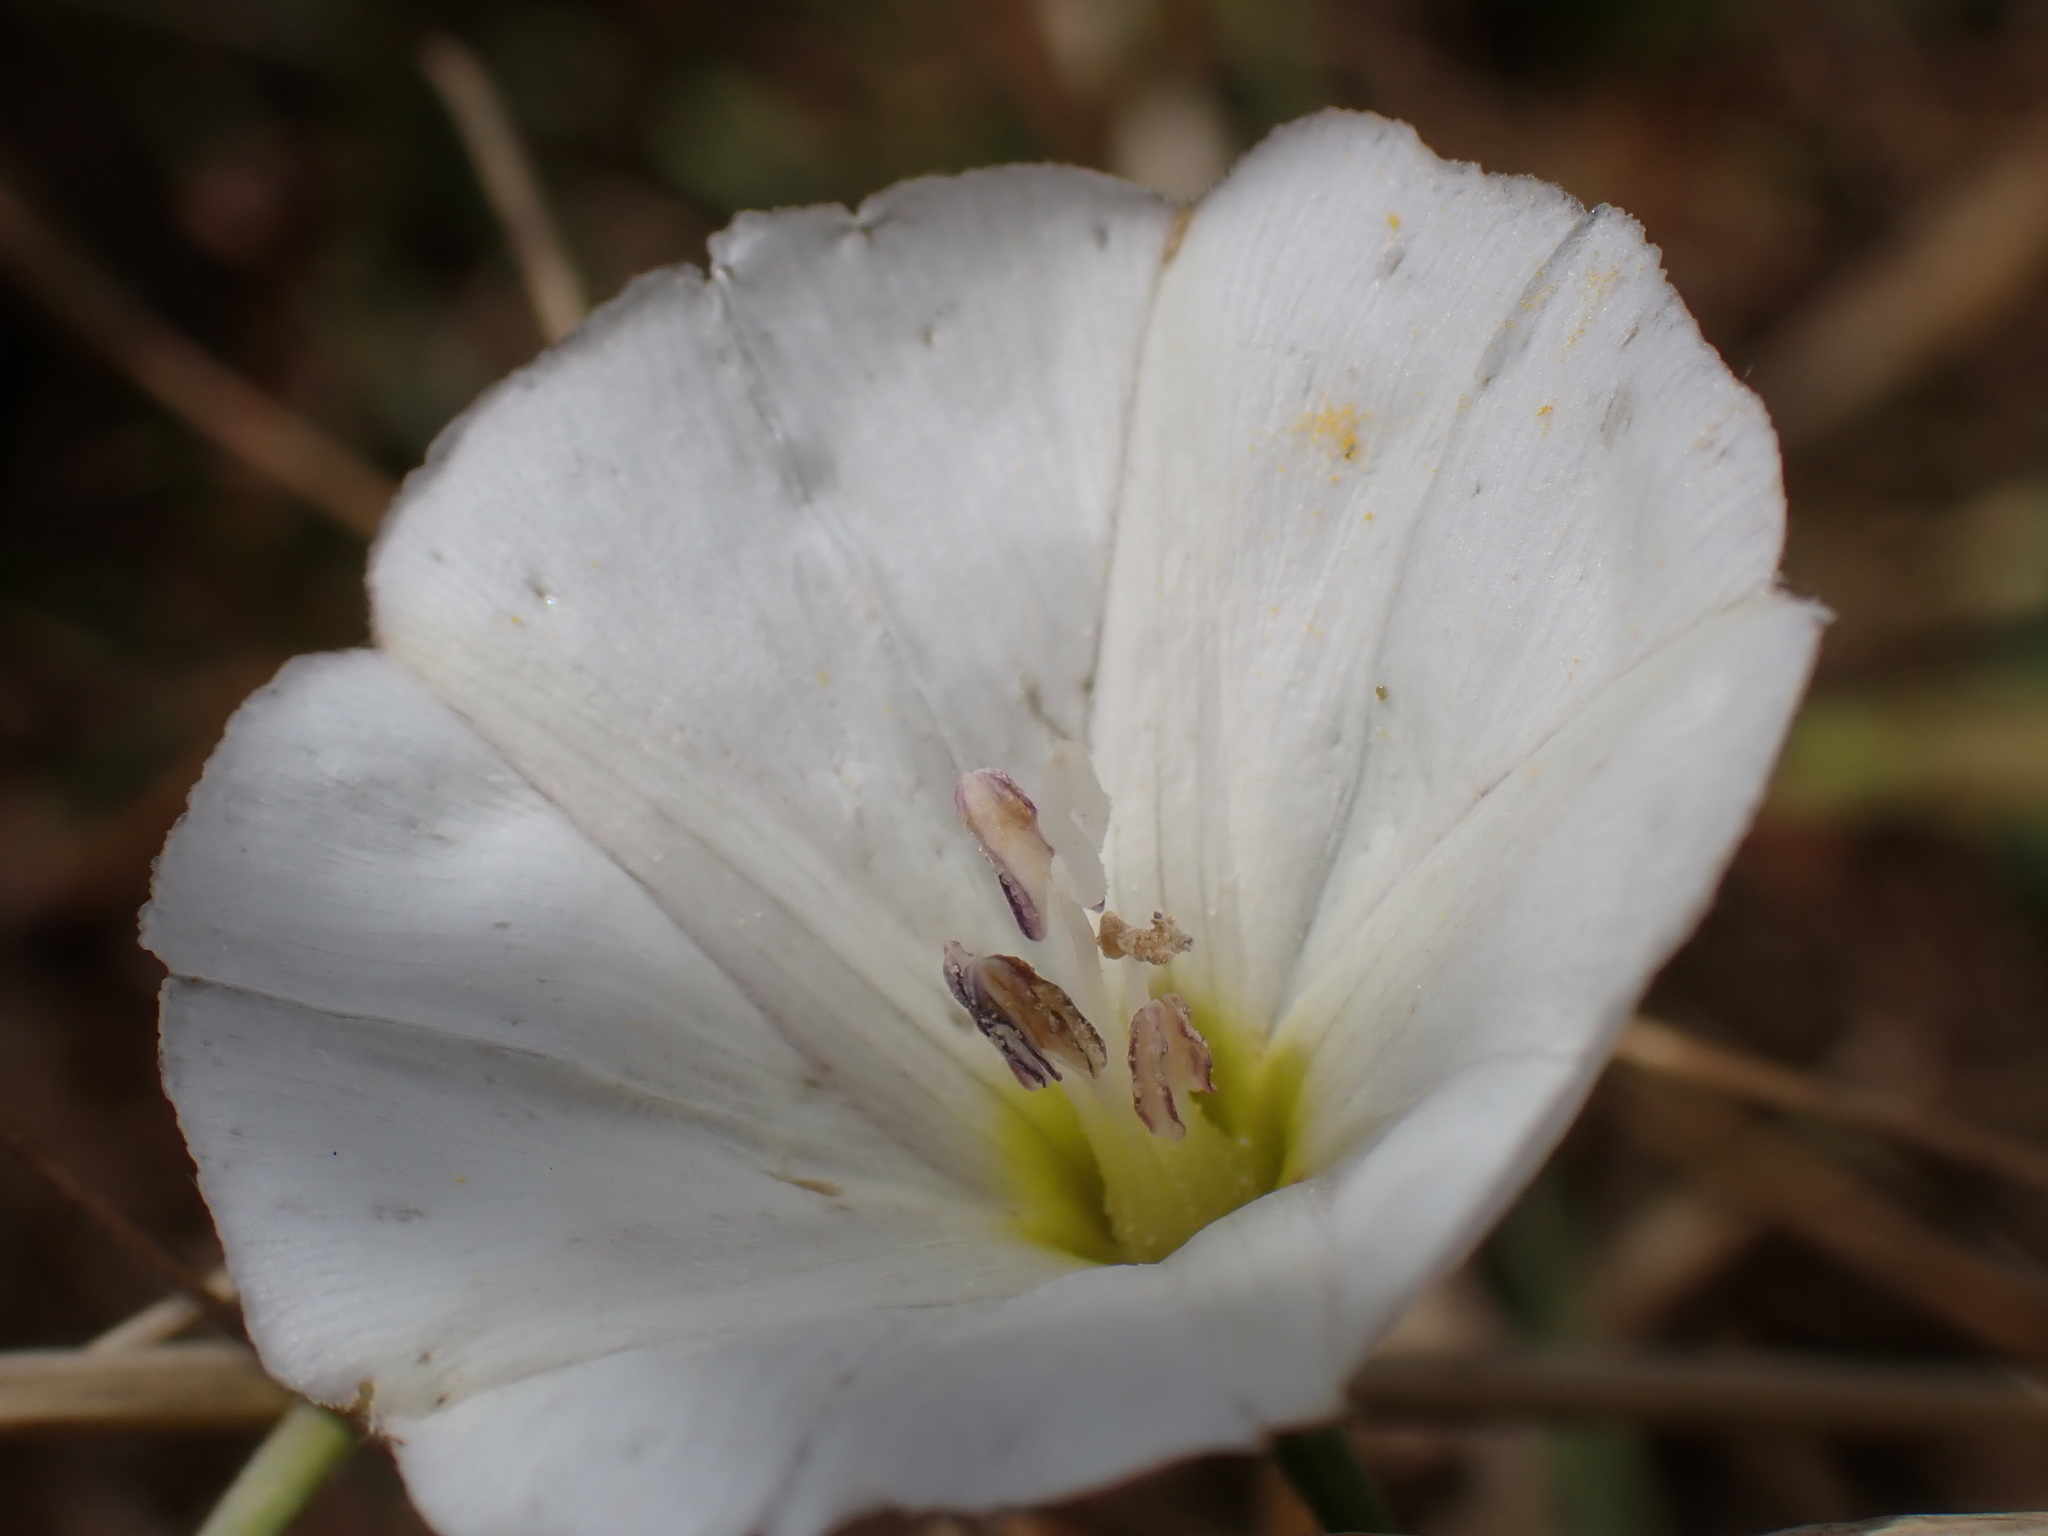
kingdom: Plantae
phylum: Tracheophyta
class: Magnoliopsida
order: Solanales
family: Convolvulaceae
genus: Convolvulus
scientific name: Convolvulus arvensis
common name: Field bindweed
